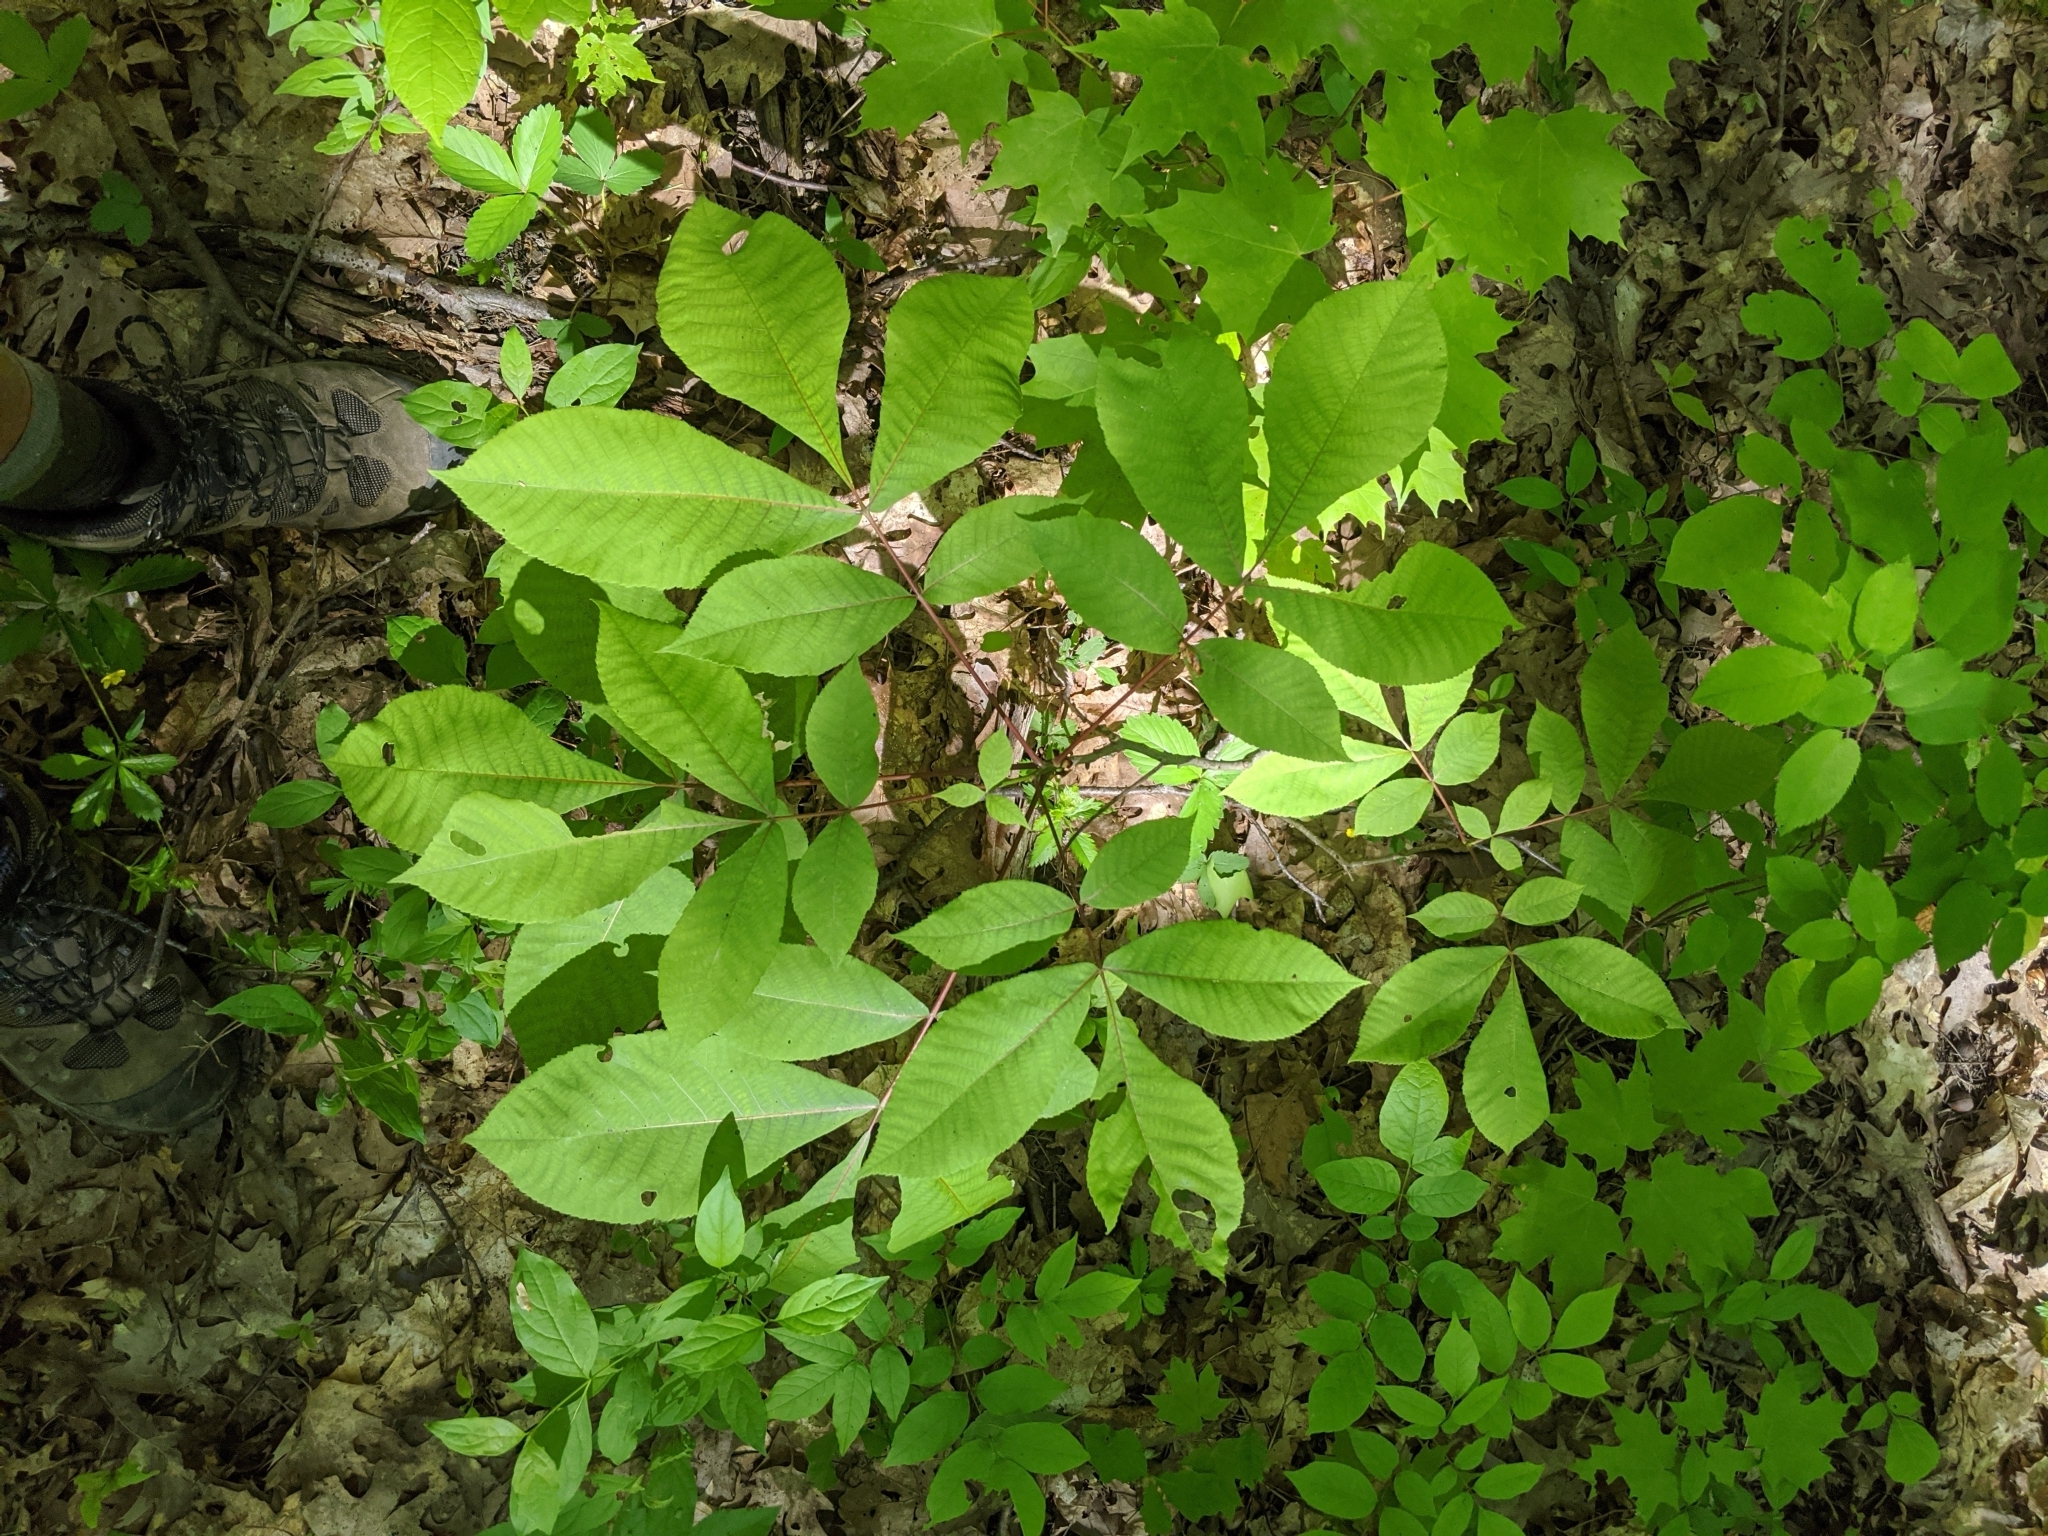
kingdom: Plantae
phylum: Tracheophyta
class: Magnoliopsida
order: Fagales
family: Juglandaceae
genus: Carya
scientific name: Carya ovata
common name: Shagbark hickory
